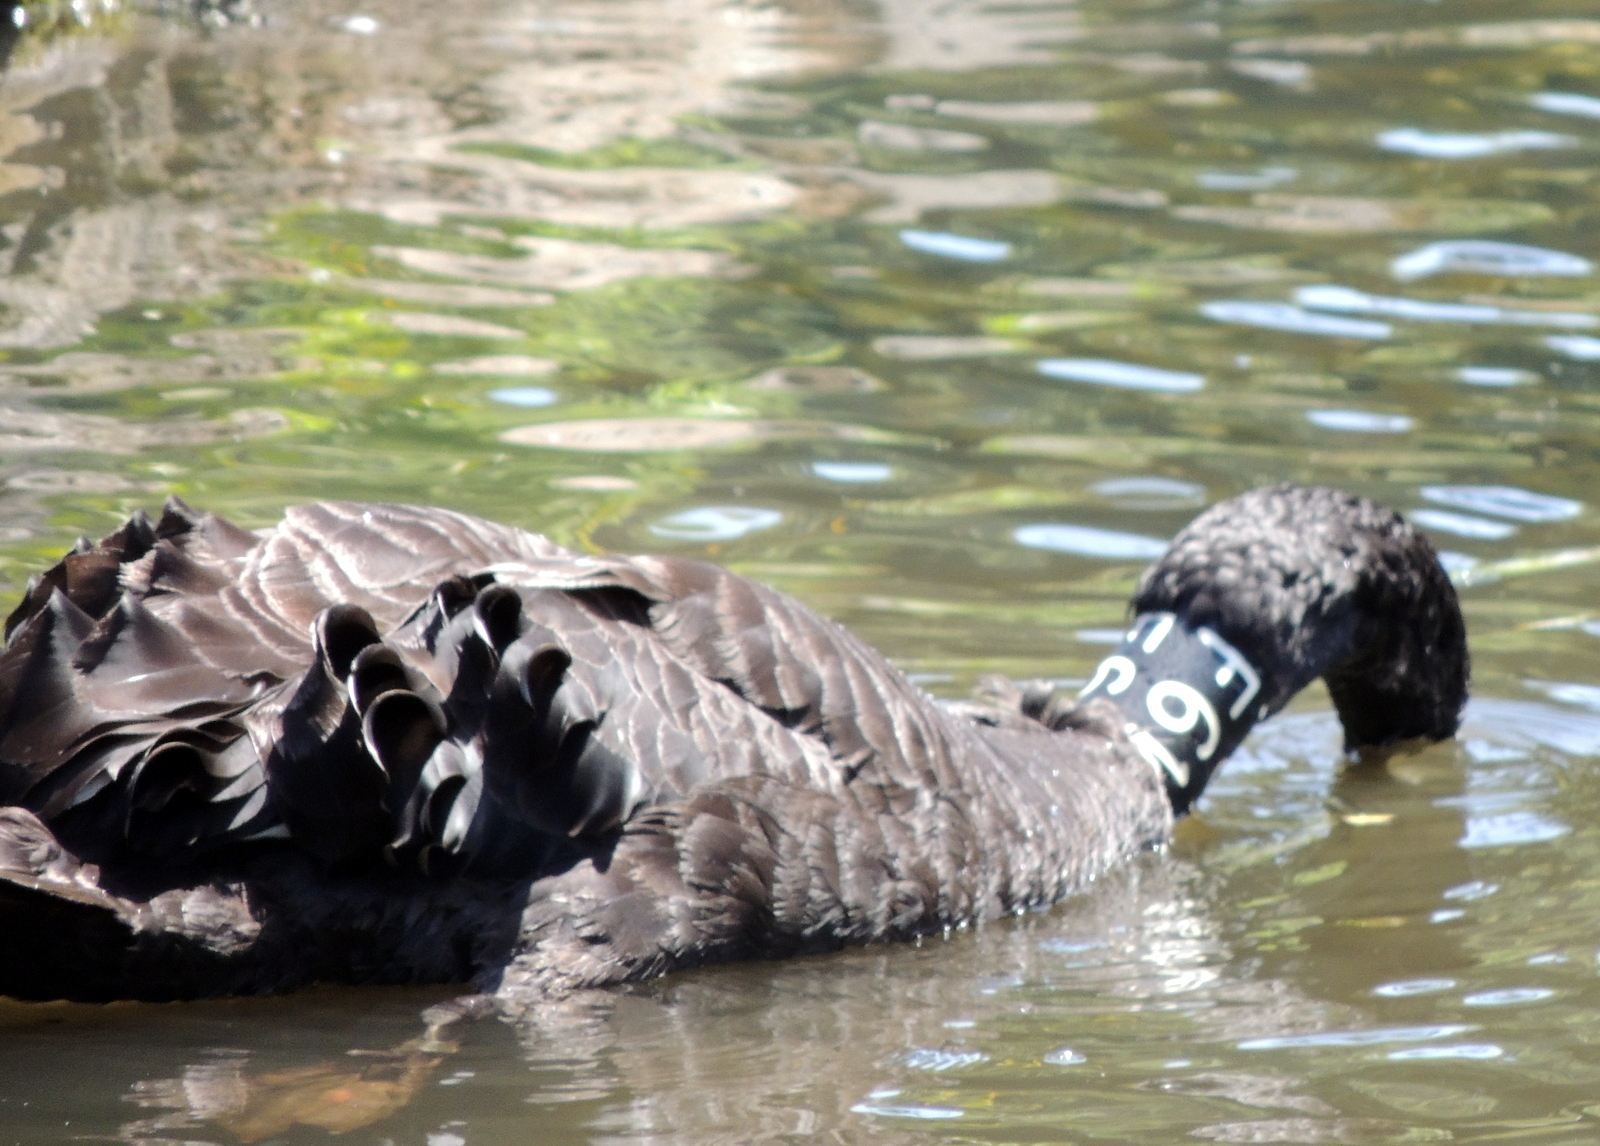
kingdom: Animalia
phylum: Chordata
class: Aves
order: Anseriformes
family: Anatidae
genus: Cygnus
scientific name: Cygnus atratus
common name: Black swan
